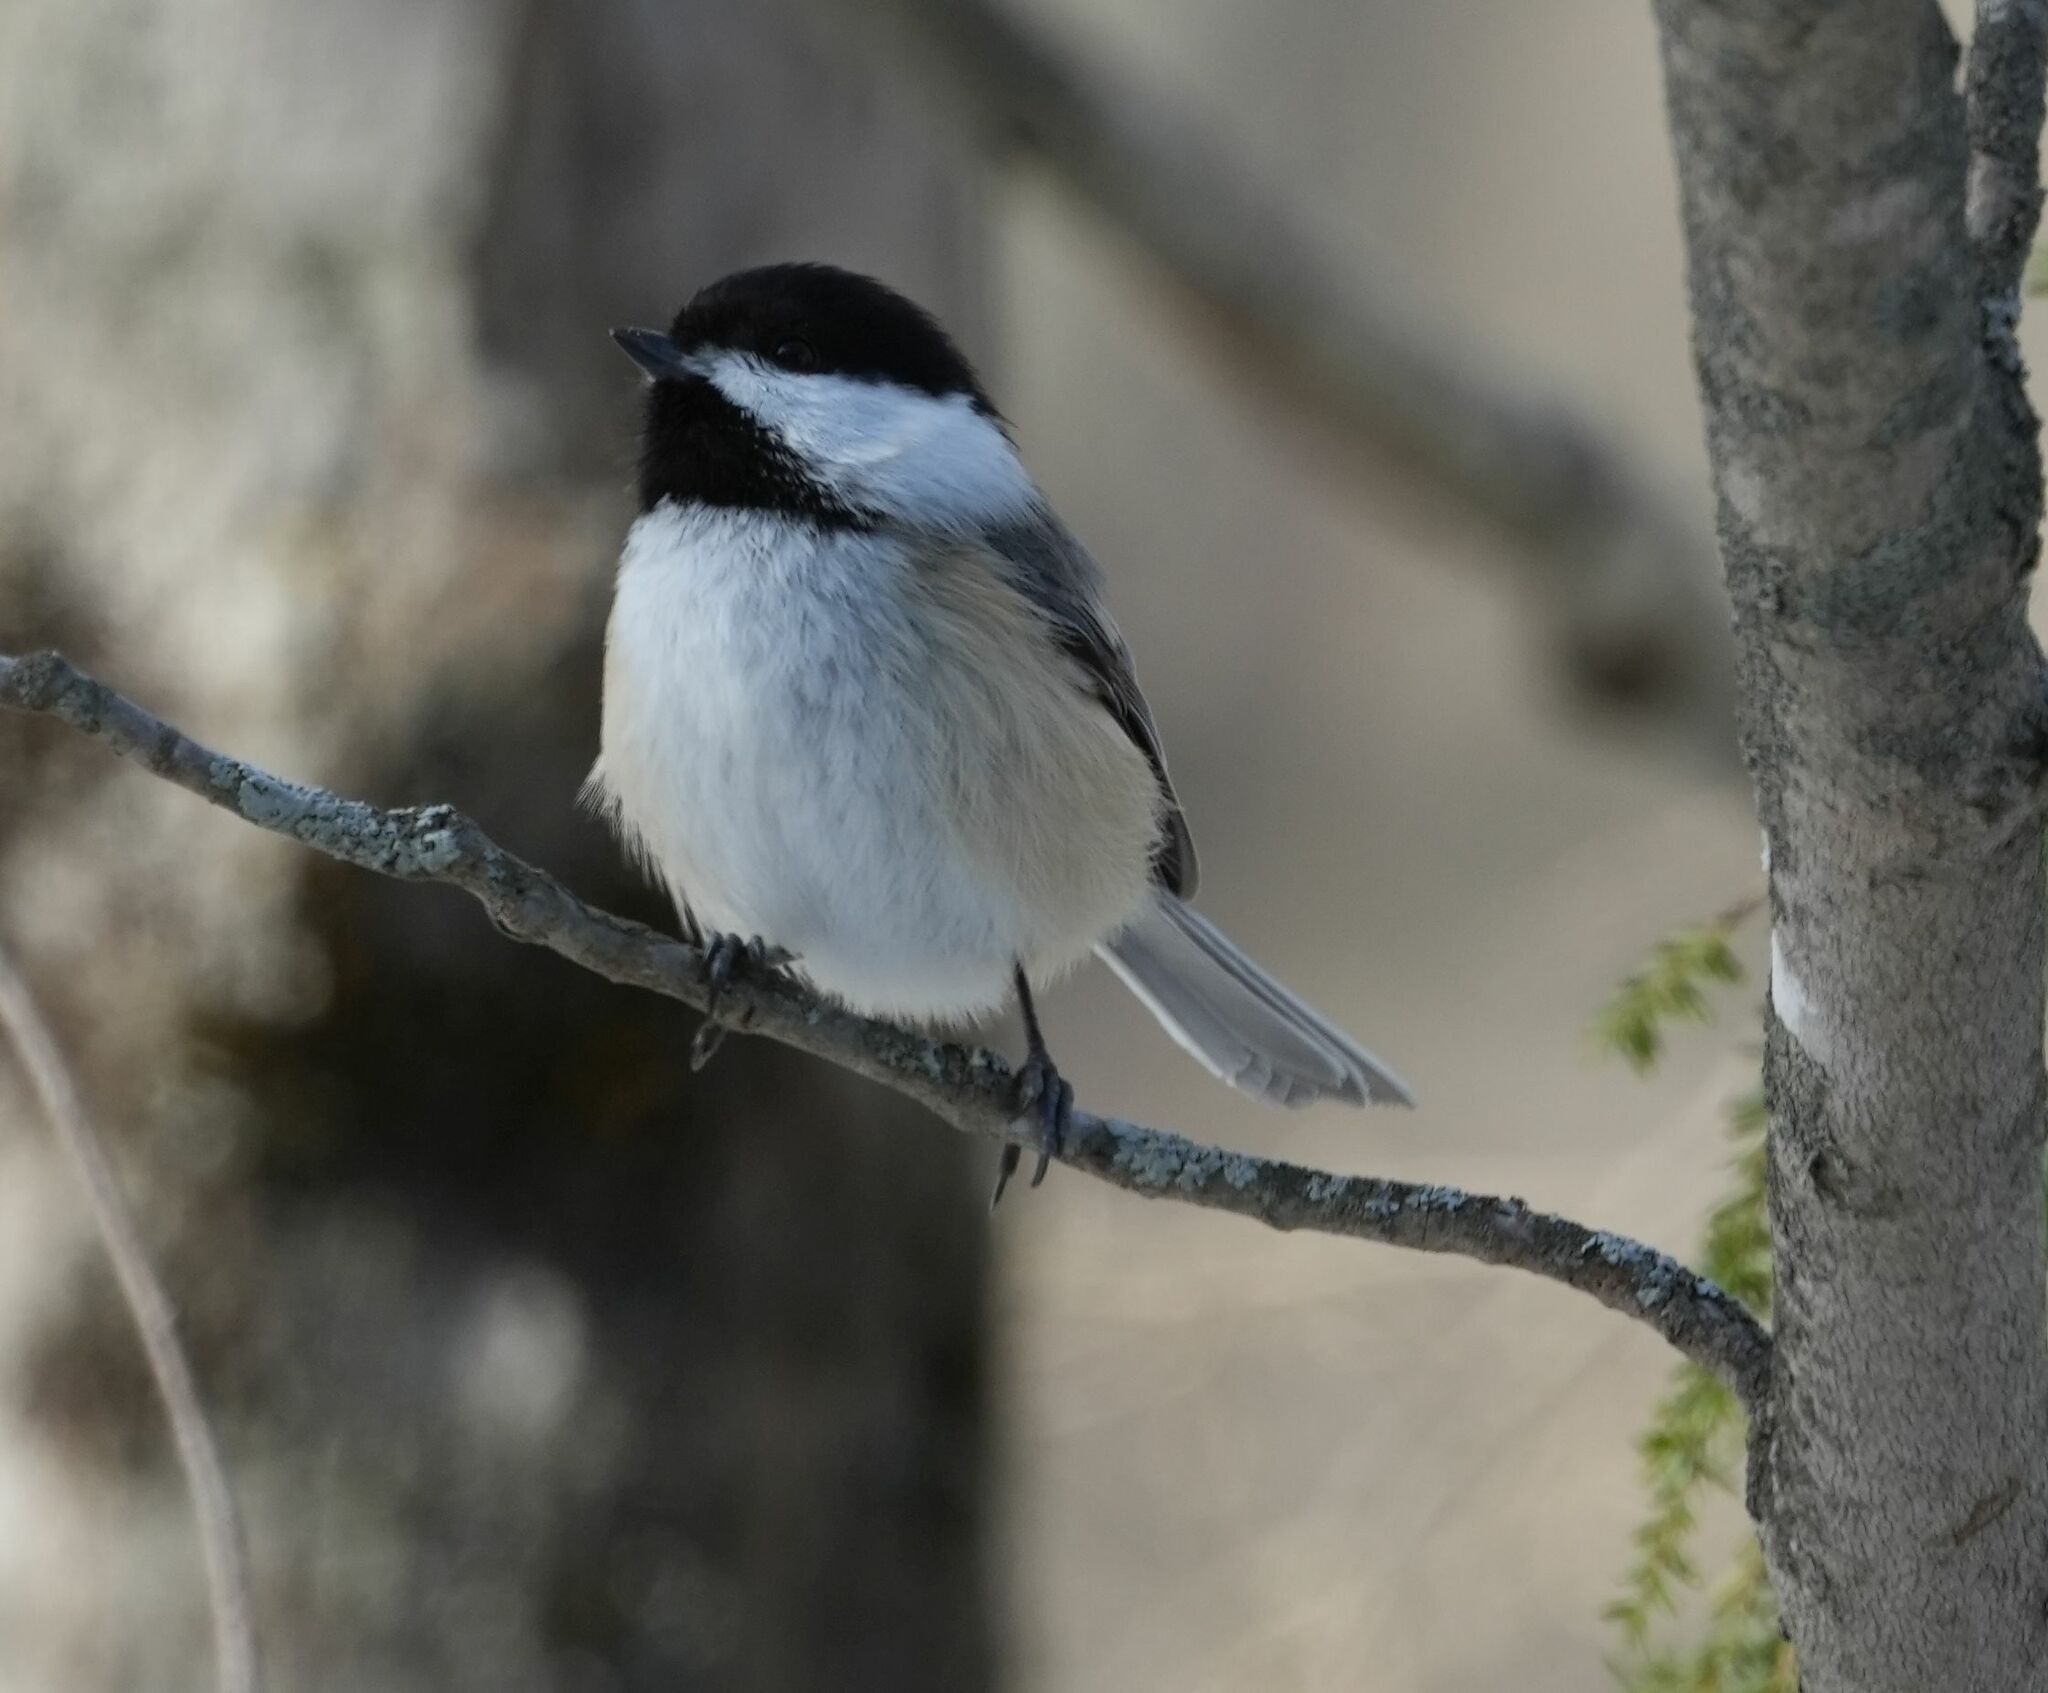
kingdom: Animalia
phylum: Chordata
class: Aves
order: Passeriformes
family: Paridae
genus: Poecile
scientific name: Poecile atricapillus
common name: Black-capped chickadee
